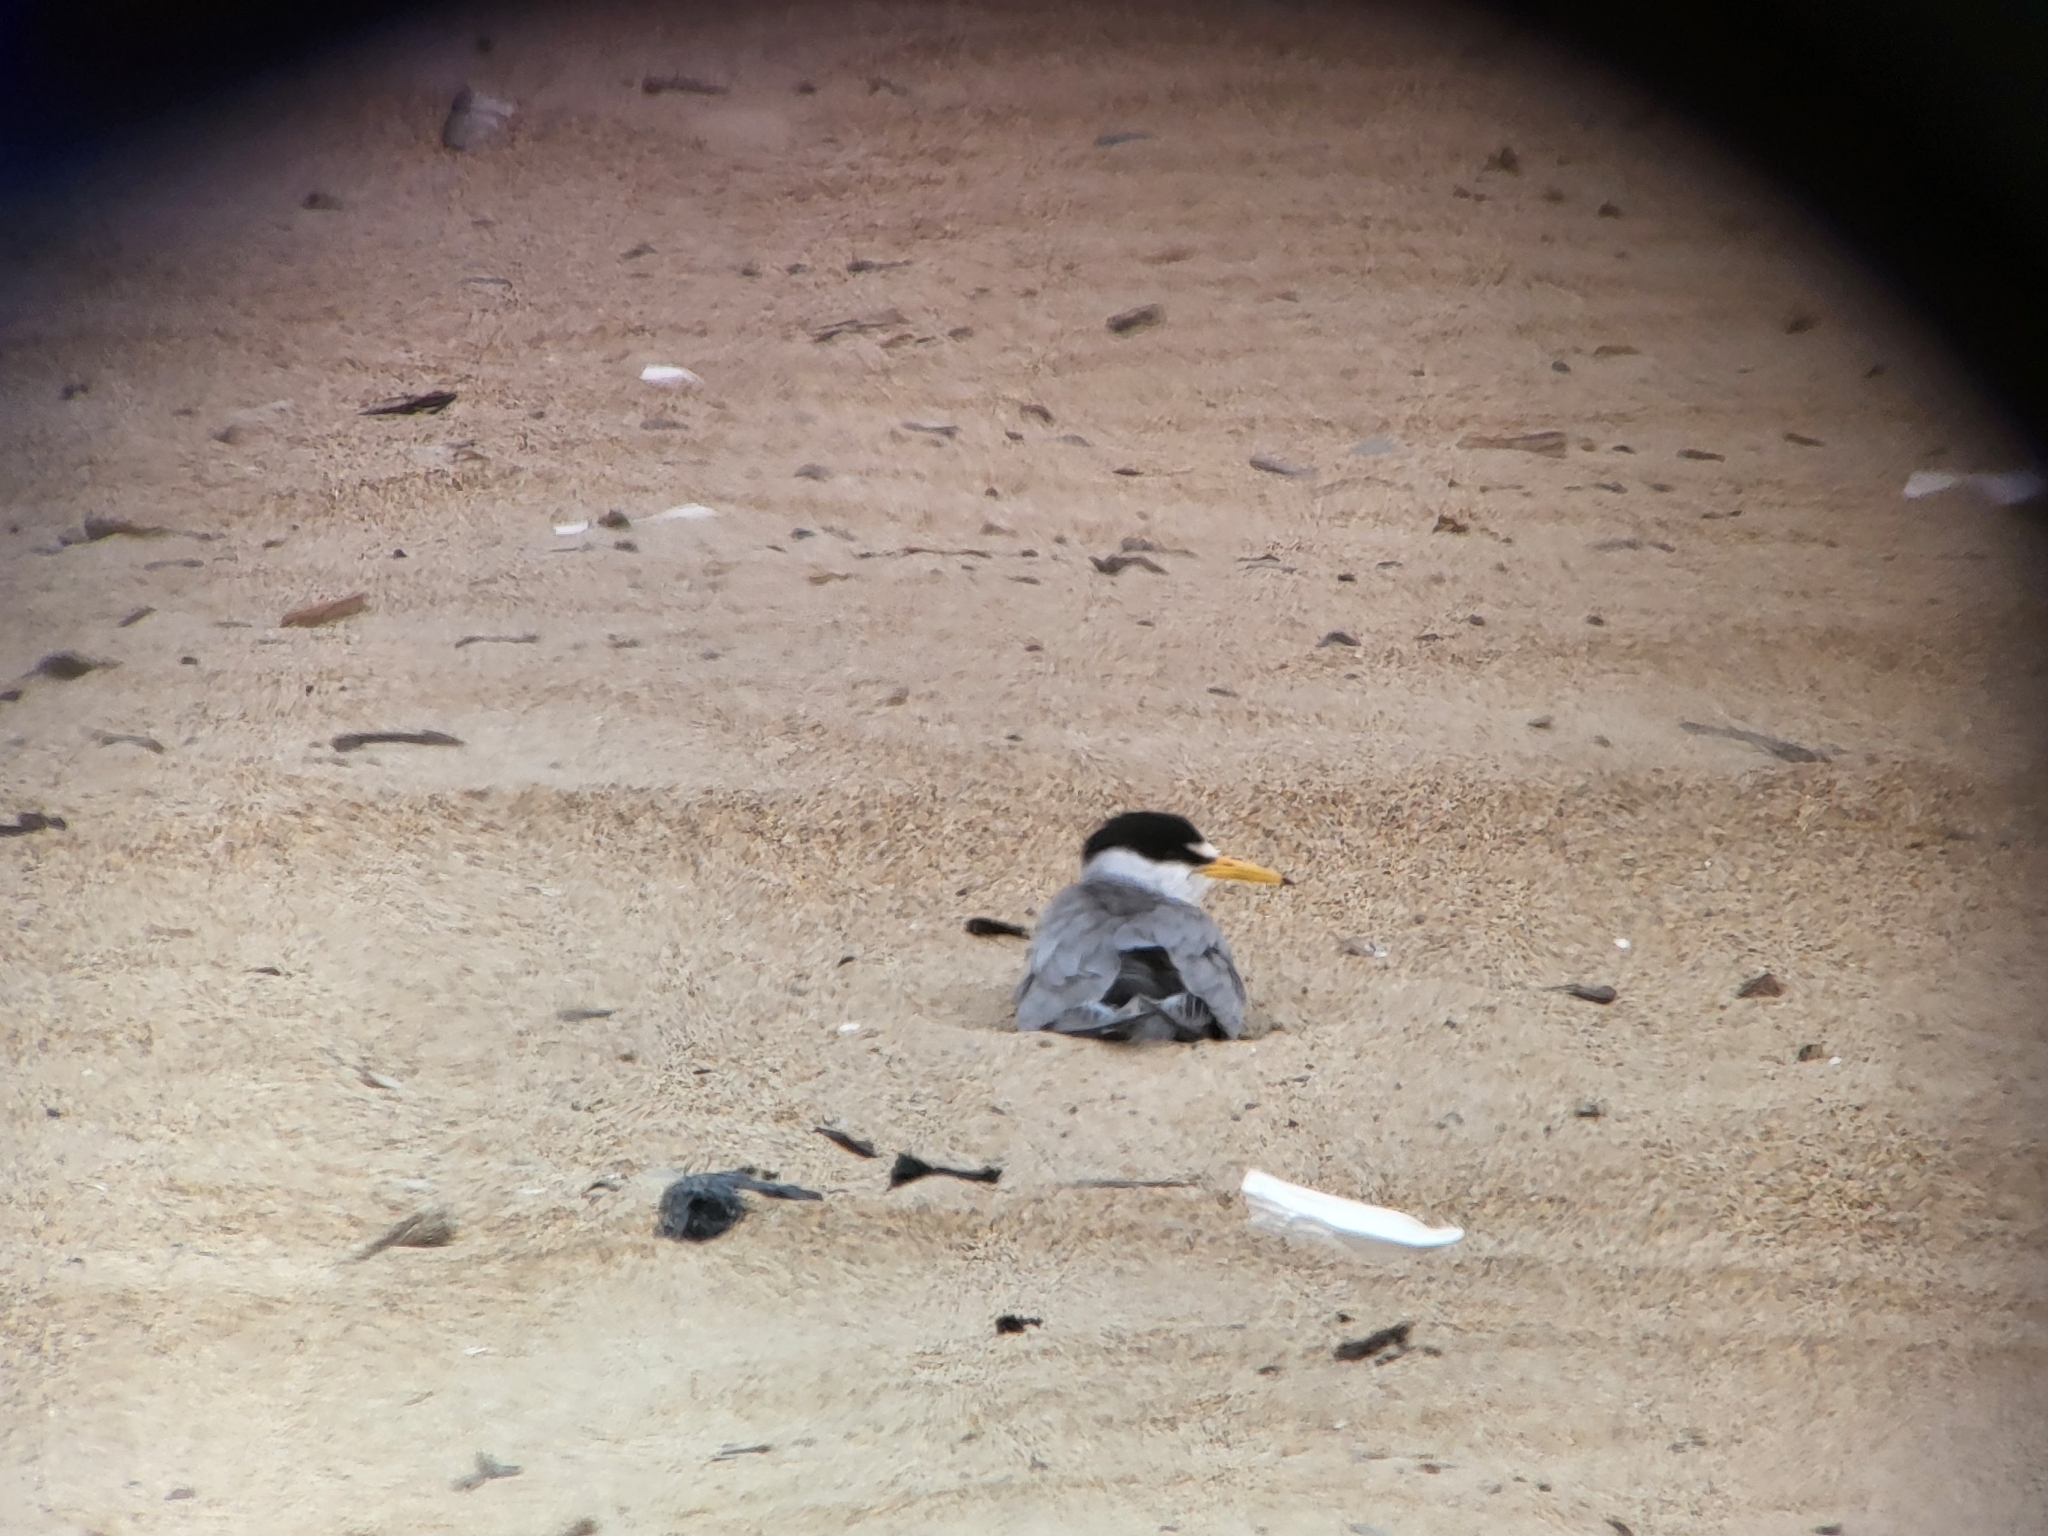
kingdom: Animalia
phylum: Chordata
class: Aves
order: Charadriiformes
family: Laridae
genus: Sternula
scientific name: Sternula antillarum
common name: Least tern
